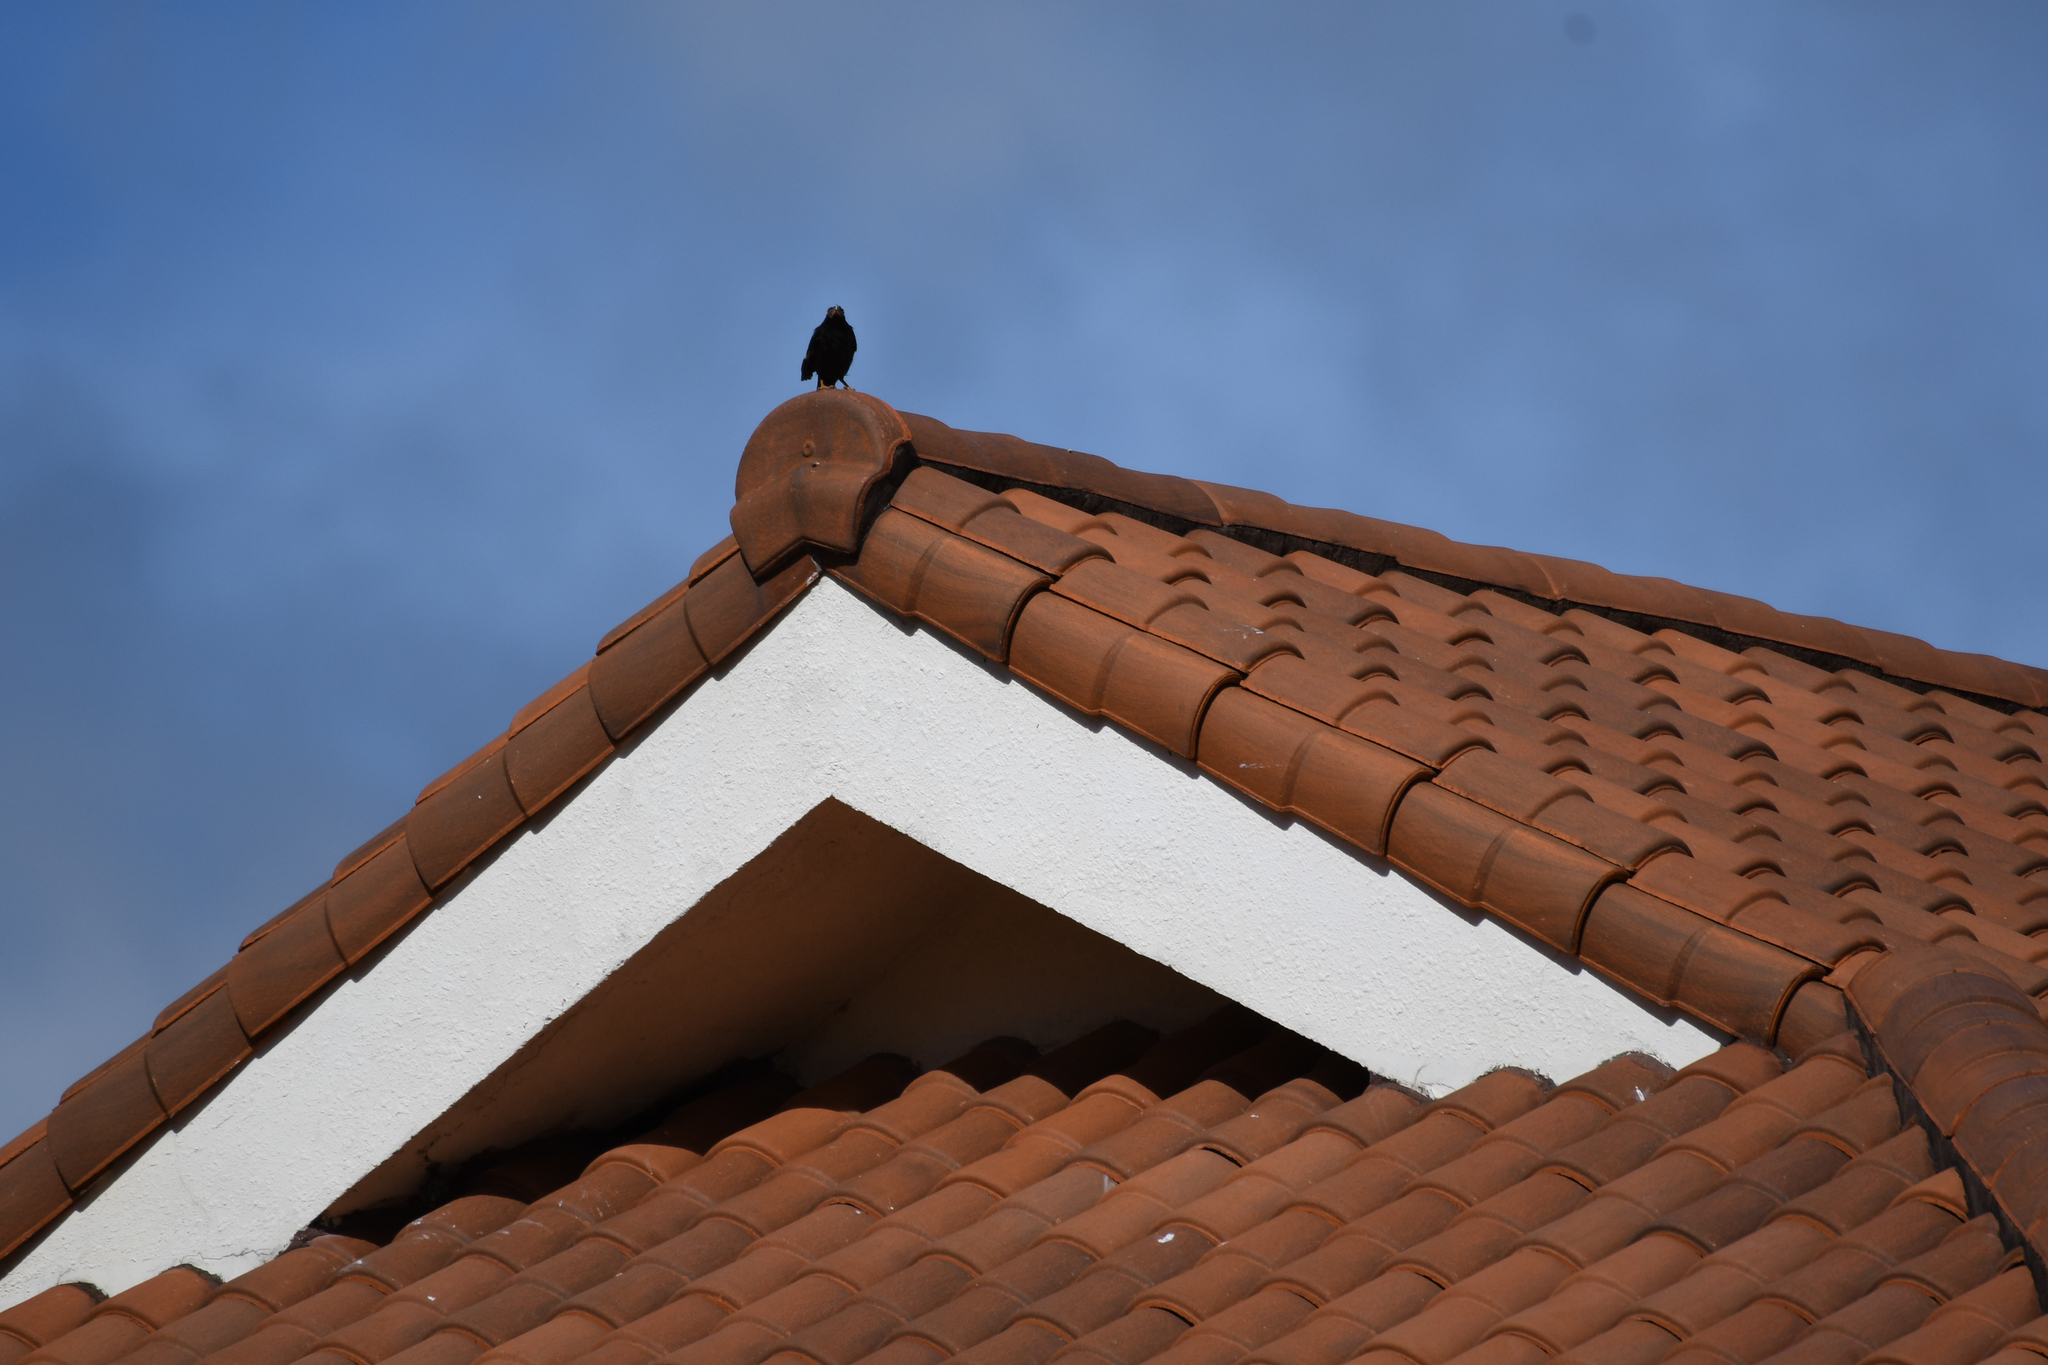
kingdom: Animalia
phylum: Chordata
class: Aves
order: Passeriformes
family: Sturnidae
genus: Acridotheres
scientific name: Acridotheres cristatellus
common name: Crested myna
